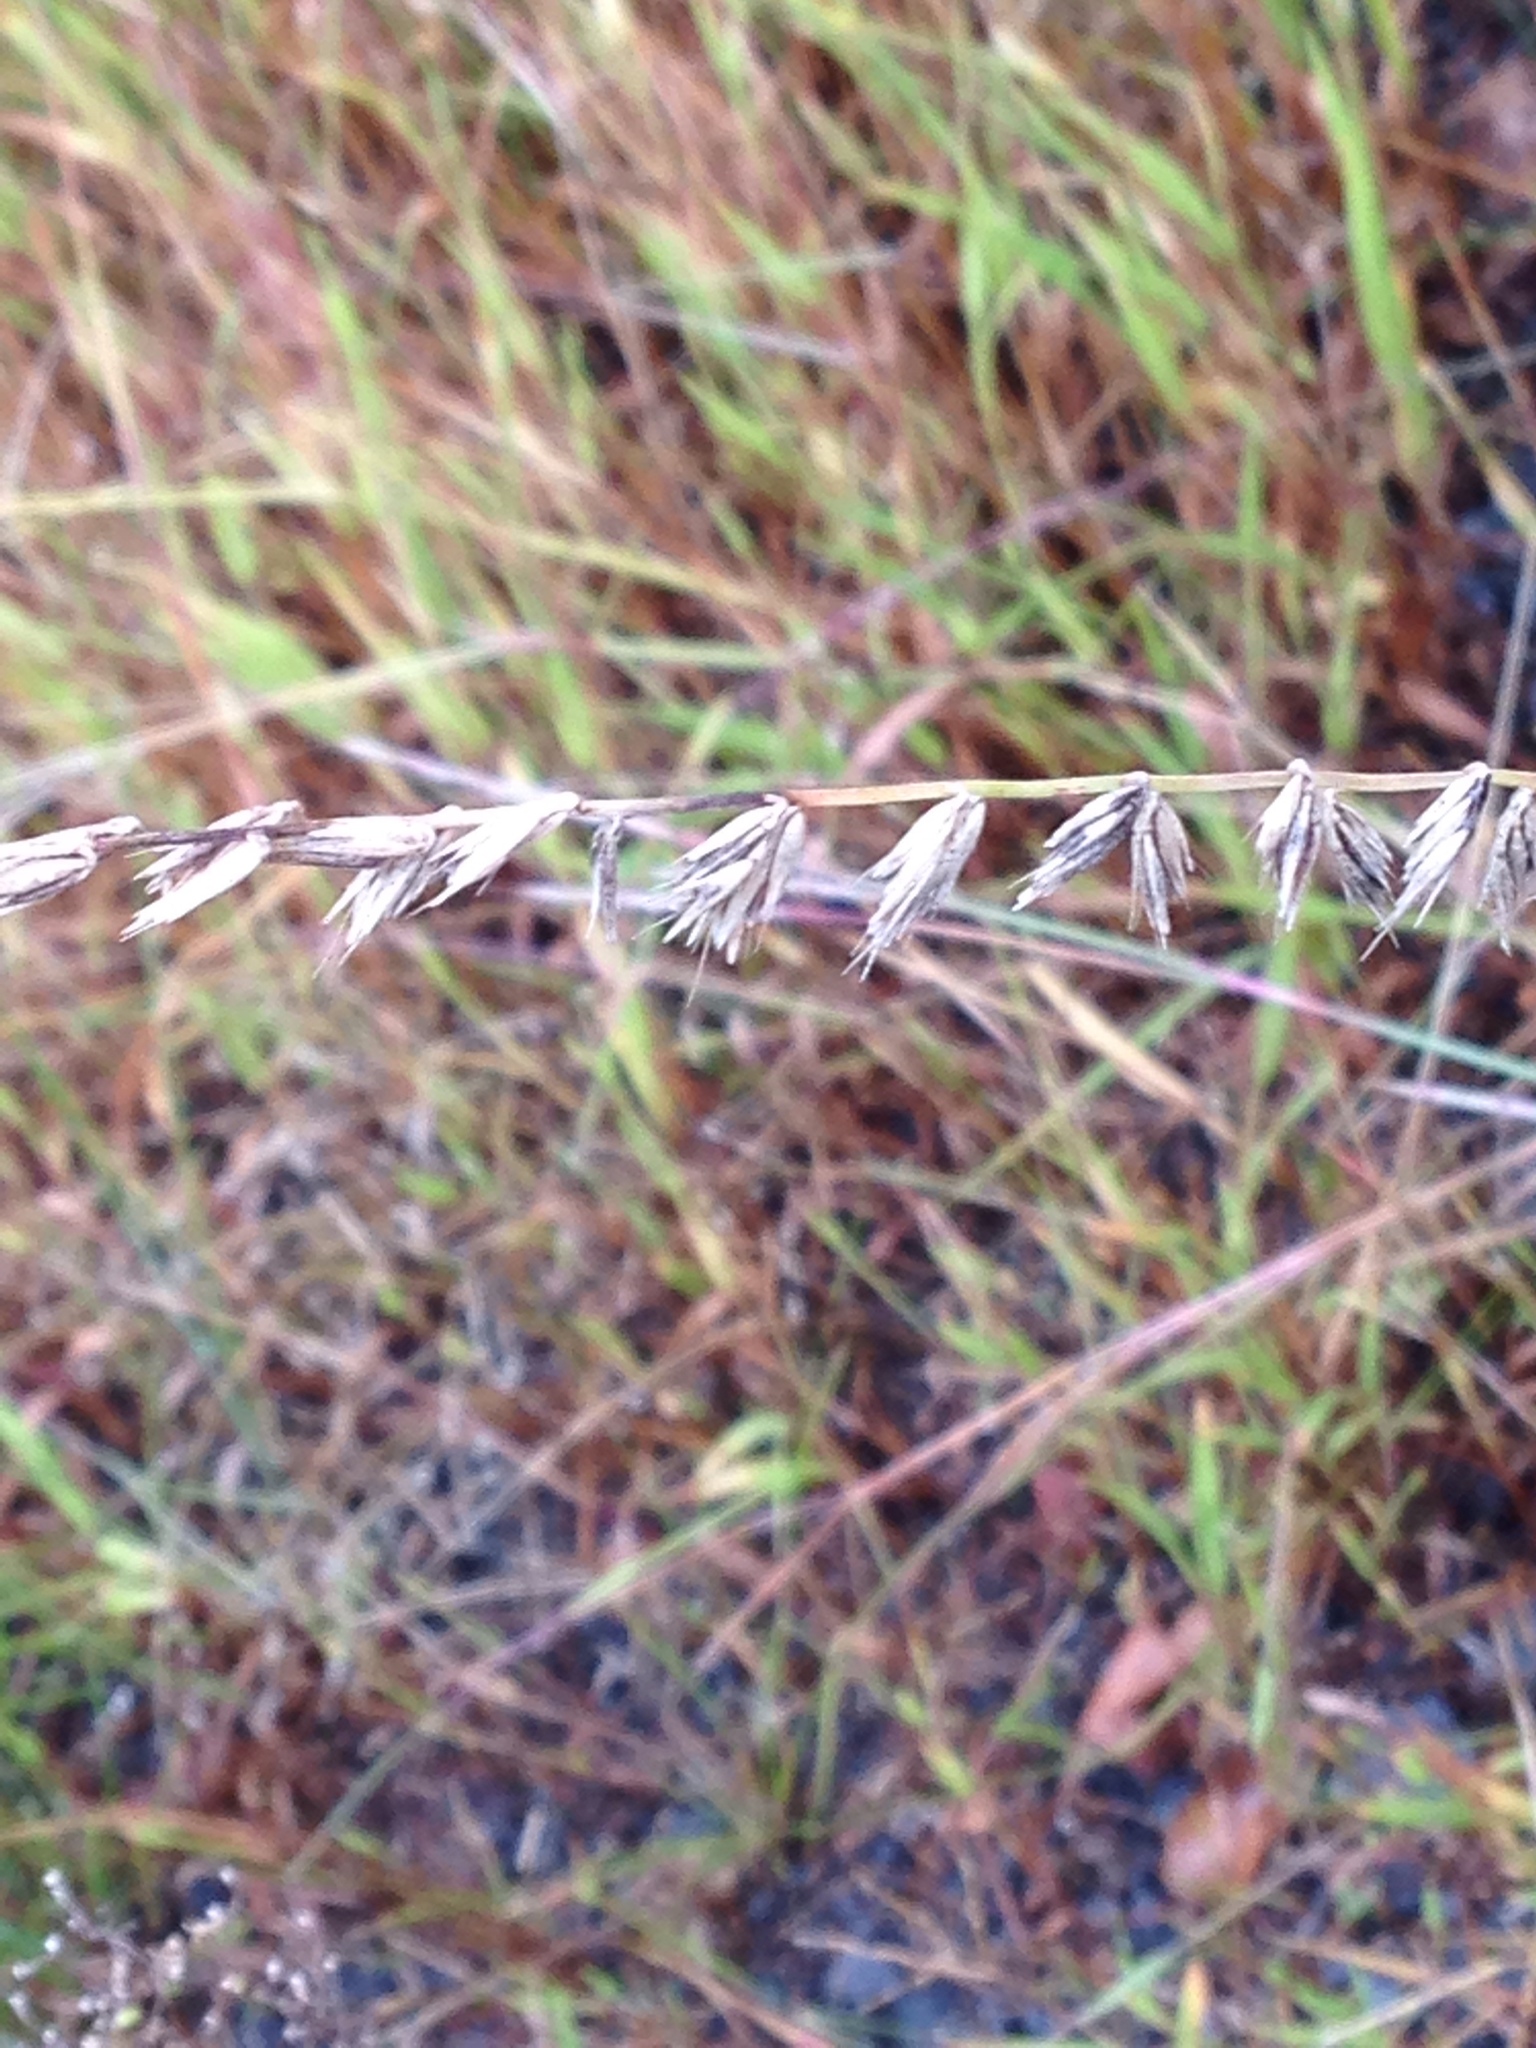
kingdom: Plantae
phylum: Tracheophyta
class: Liliopsida
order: Poales
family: Poaceae
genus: Bouteloua
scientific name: Bouteloua curtipendula
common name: Side-oats grama
